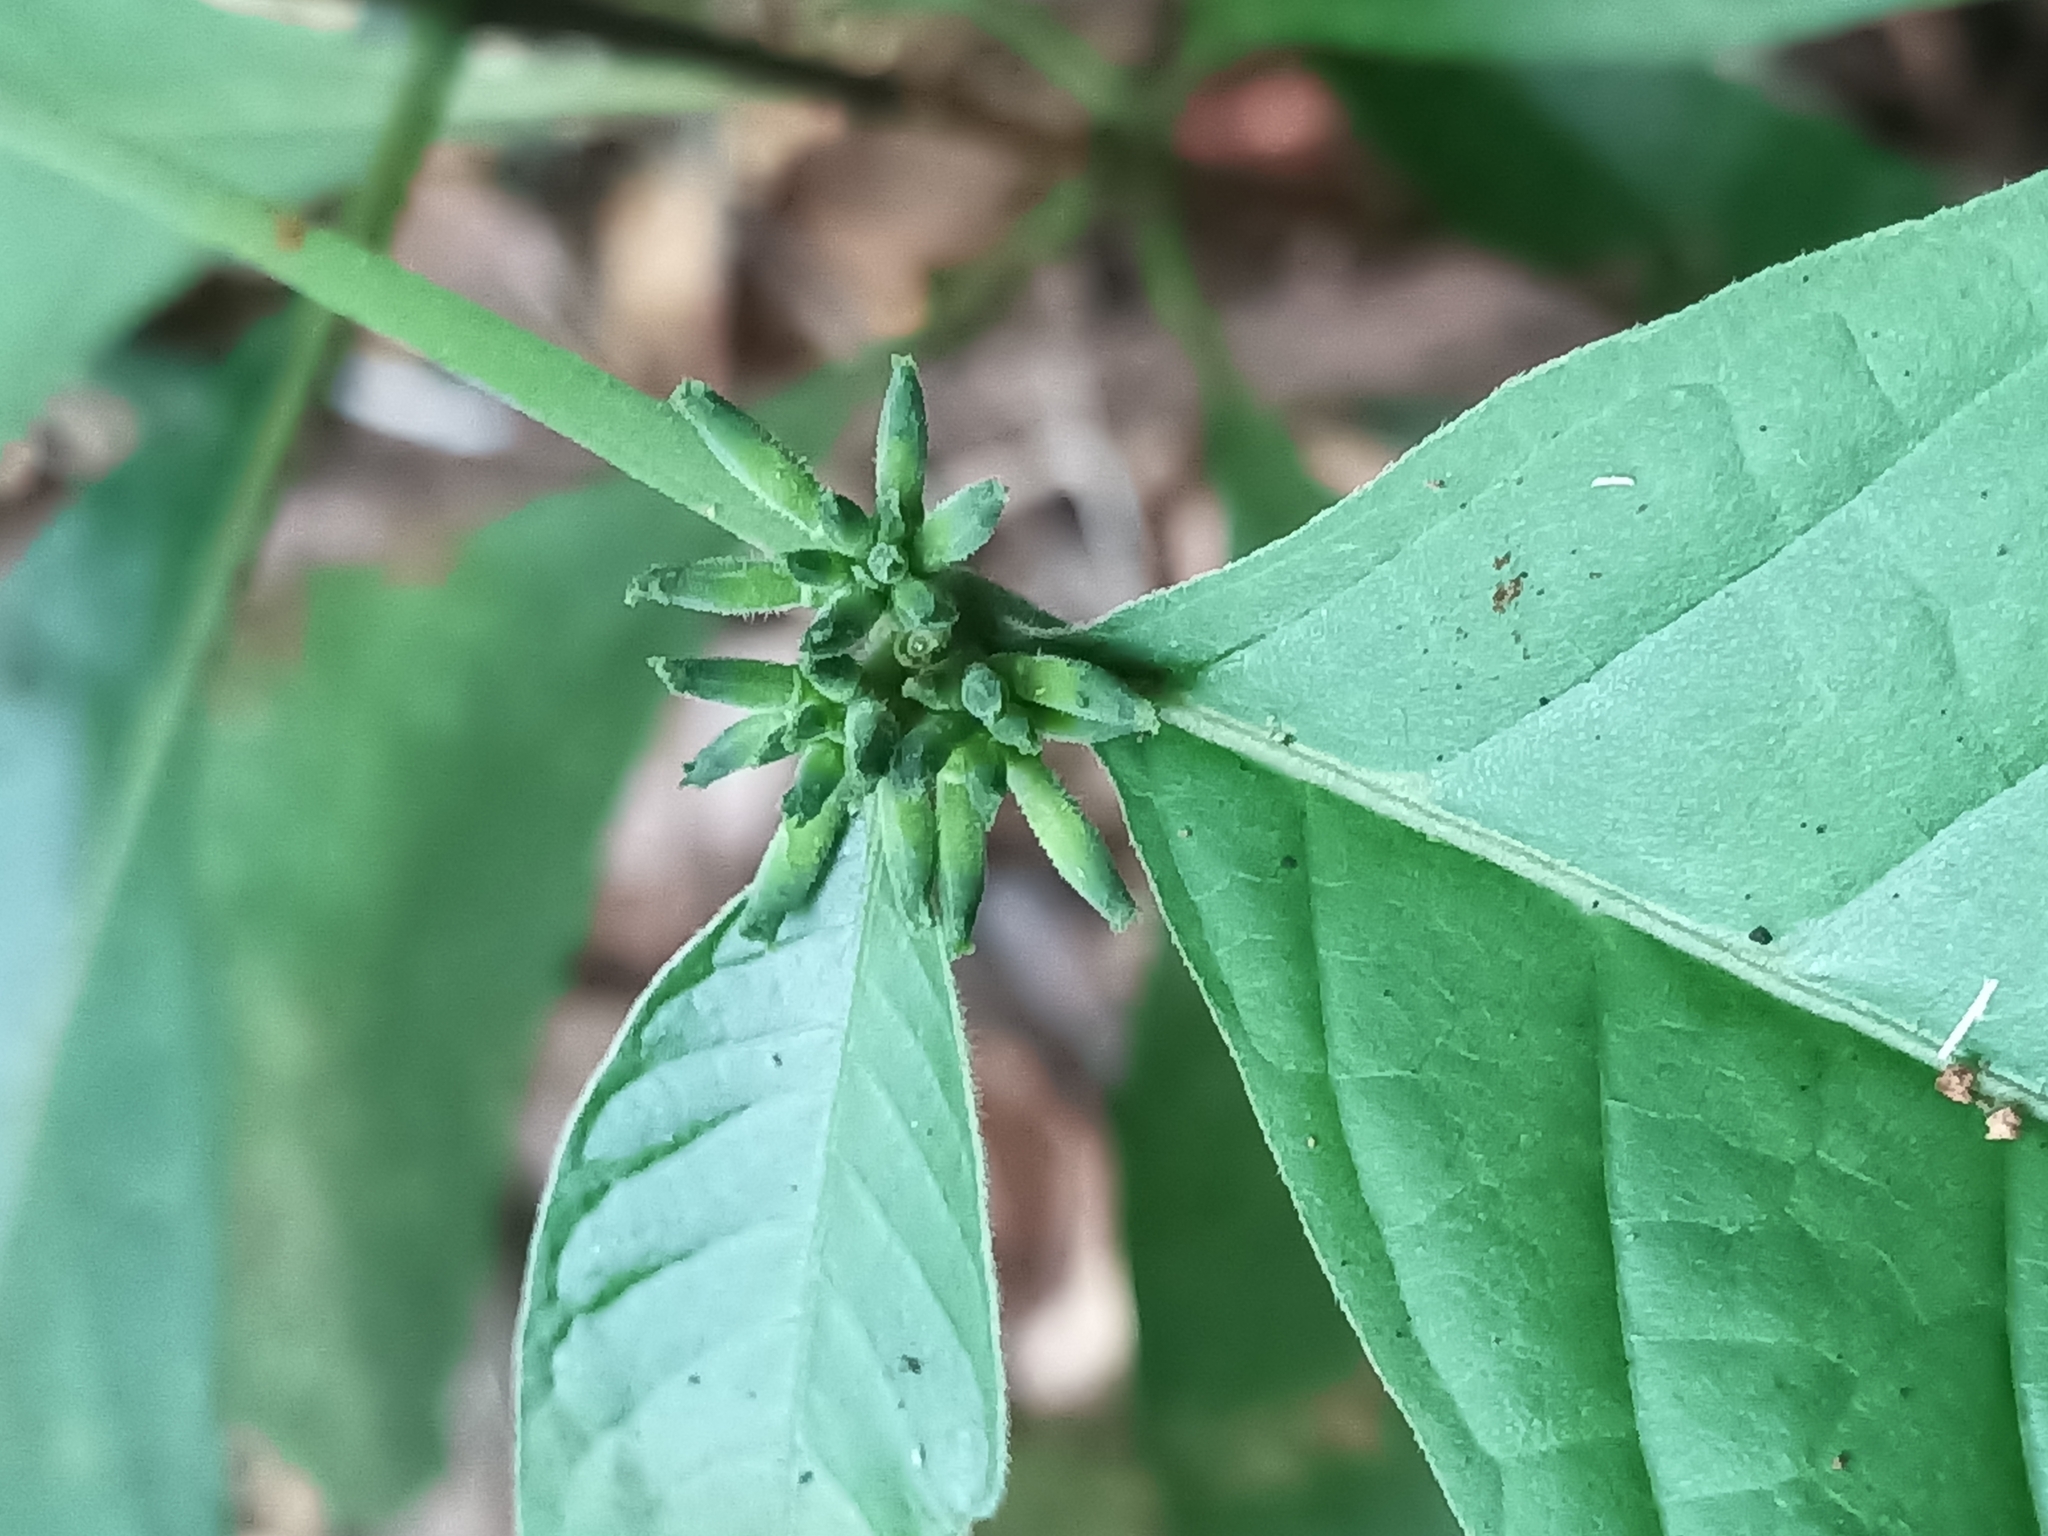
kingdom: Plantae
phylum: Tracheophyta
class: Magnoliopsida
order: Gentianales
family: Rubiaceae
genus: Appunia
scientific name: Appunia morindoides
